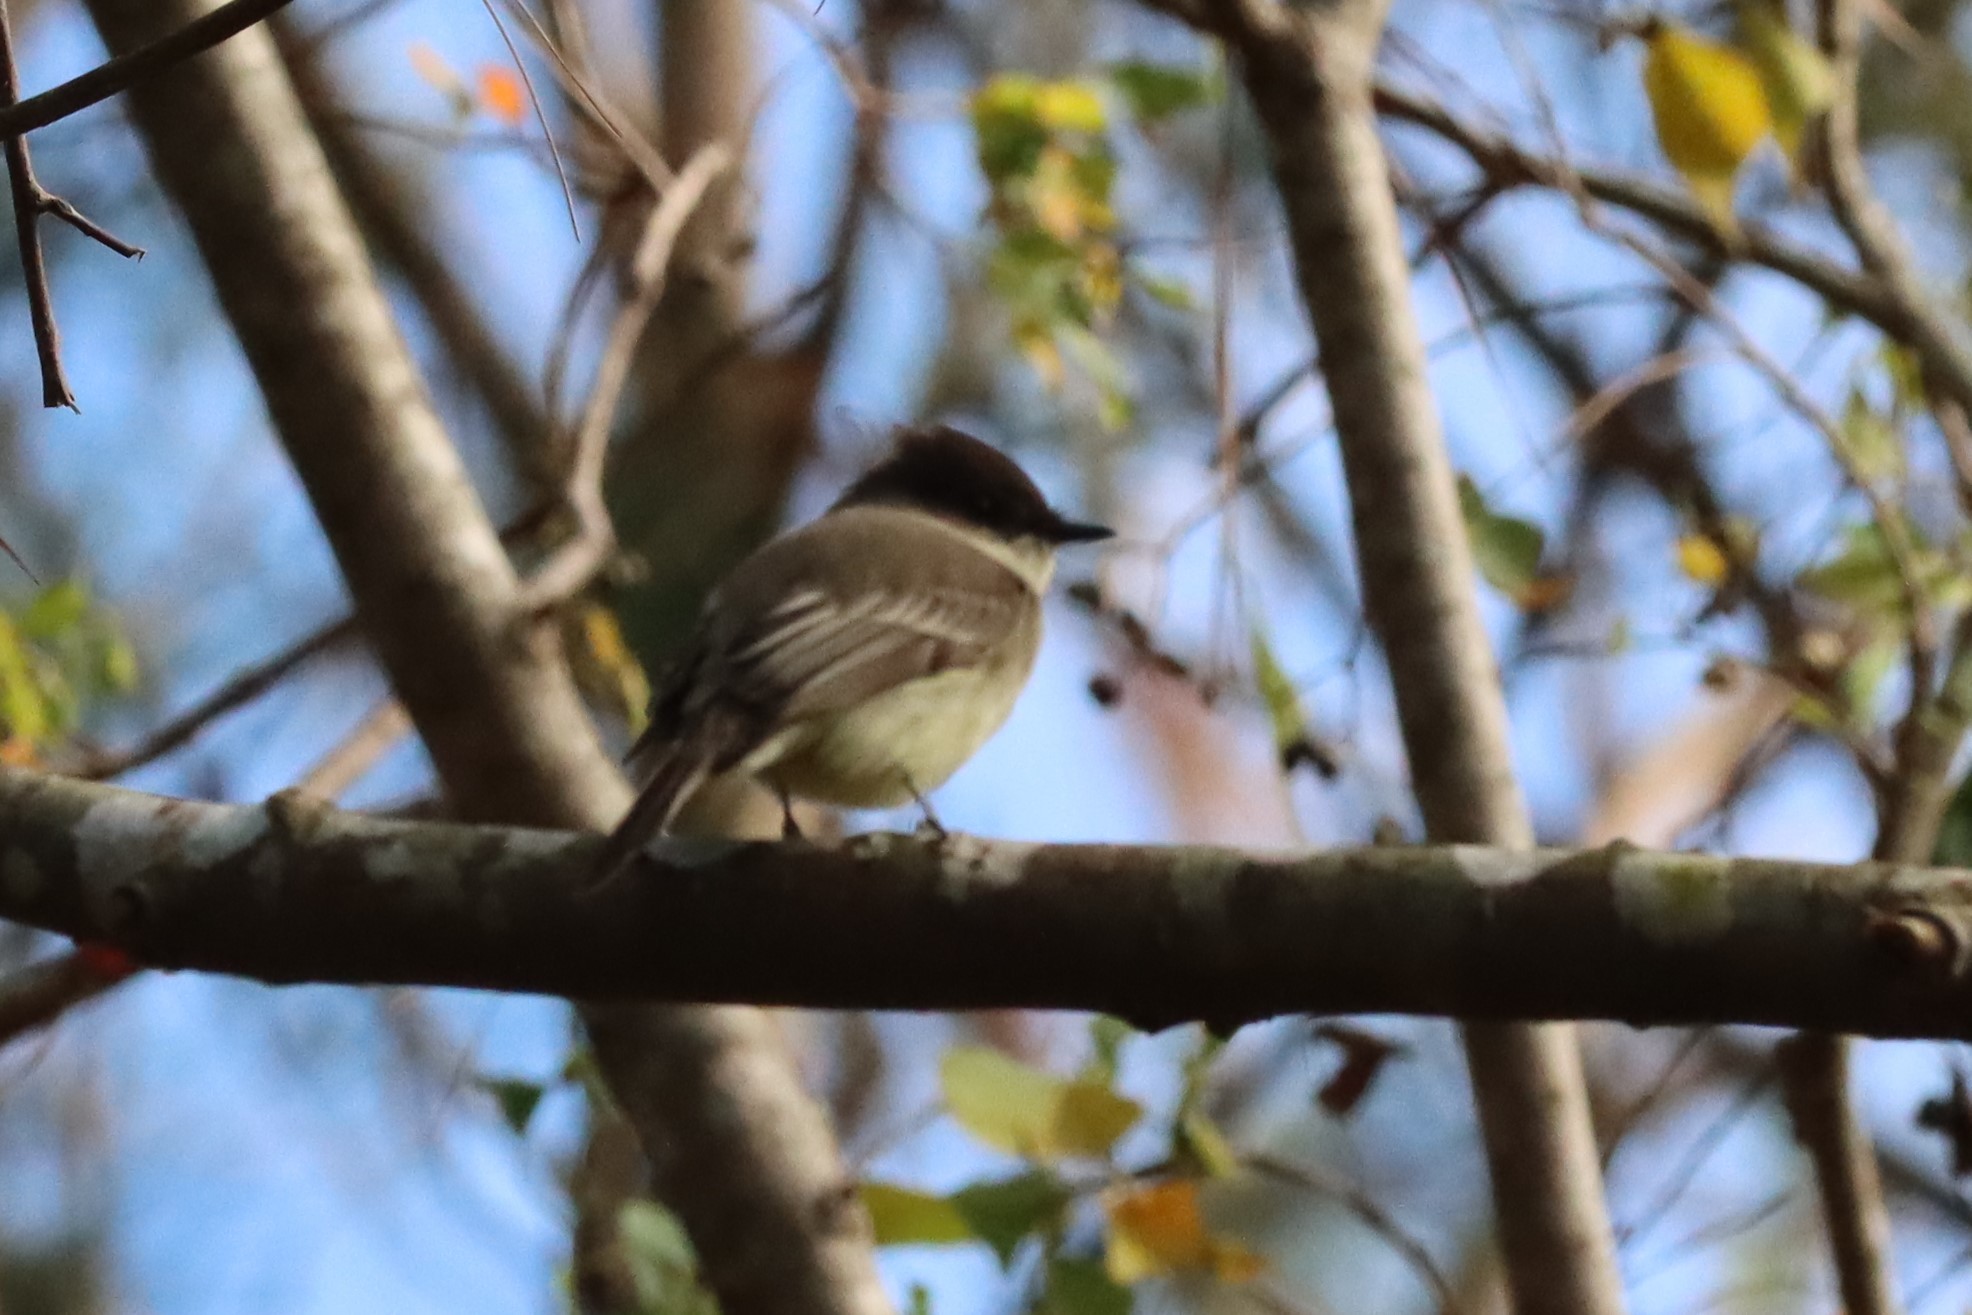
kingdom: Animalia
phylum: Chordata
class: Aves
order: Passeriformes
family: Tyrannidae
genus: Sayornis
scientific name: Sayornis phoebe
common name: Eastern phoebe
